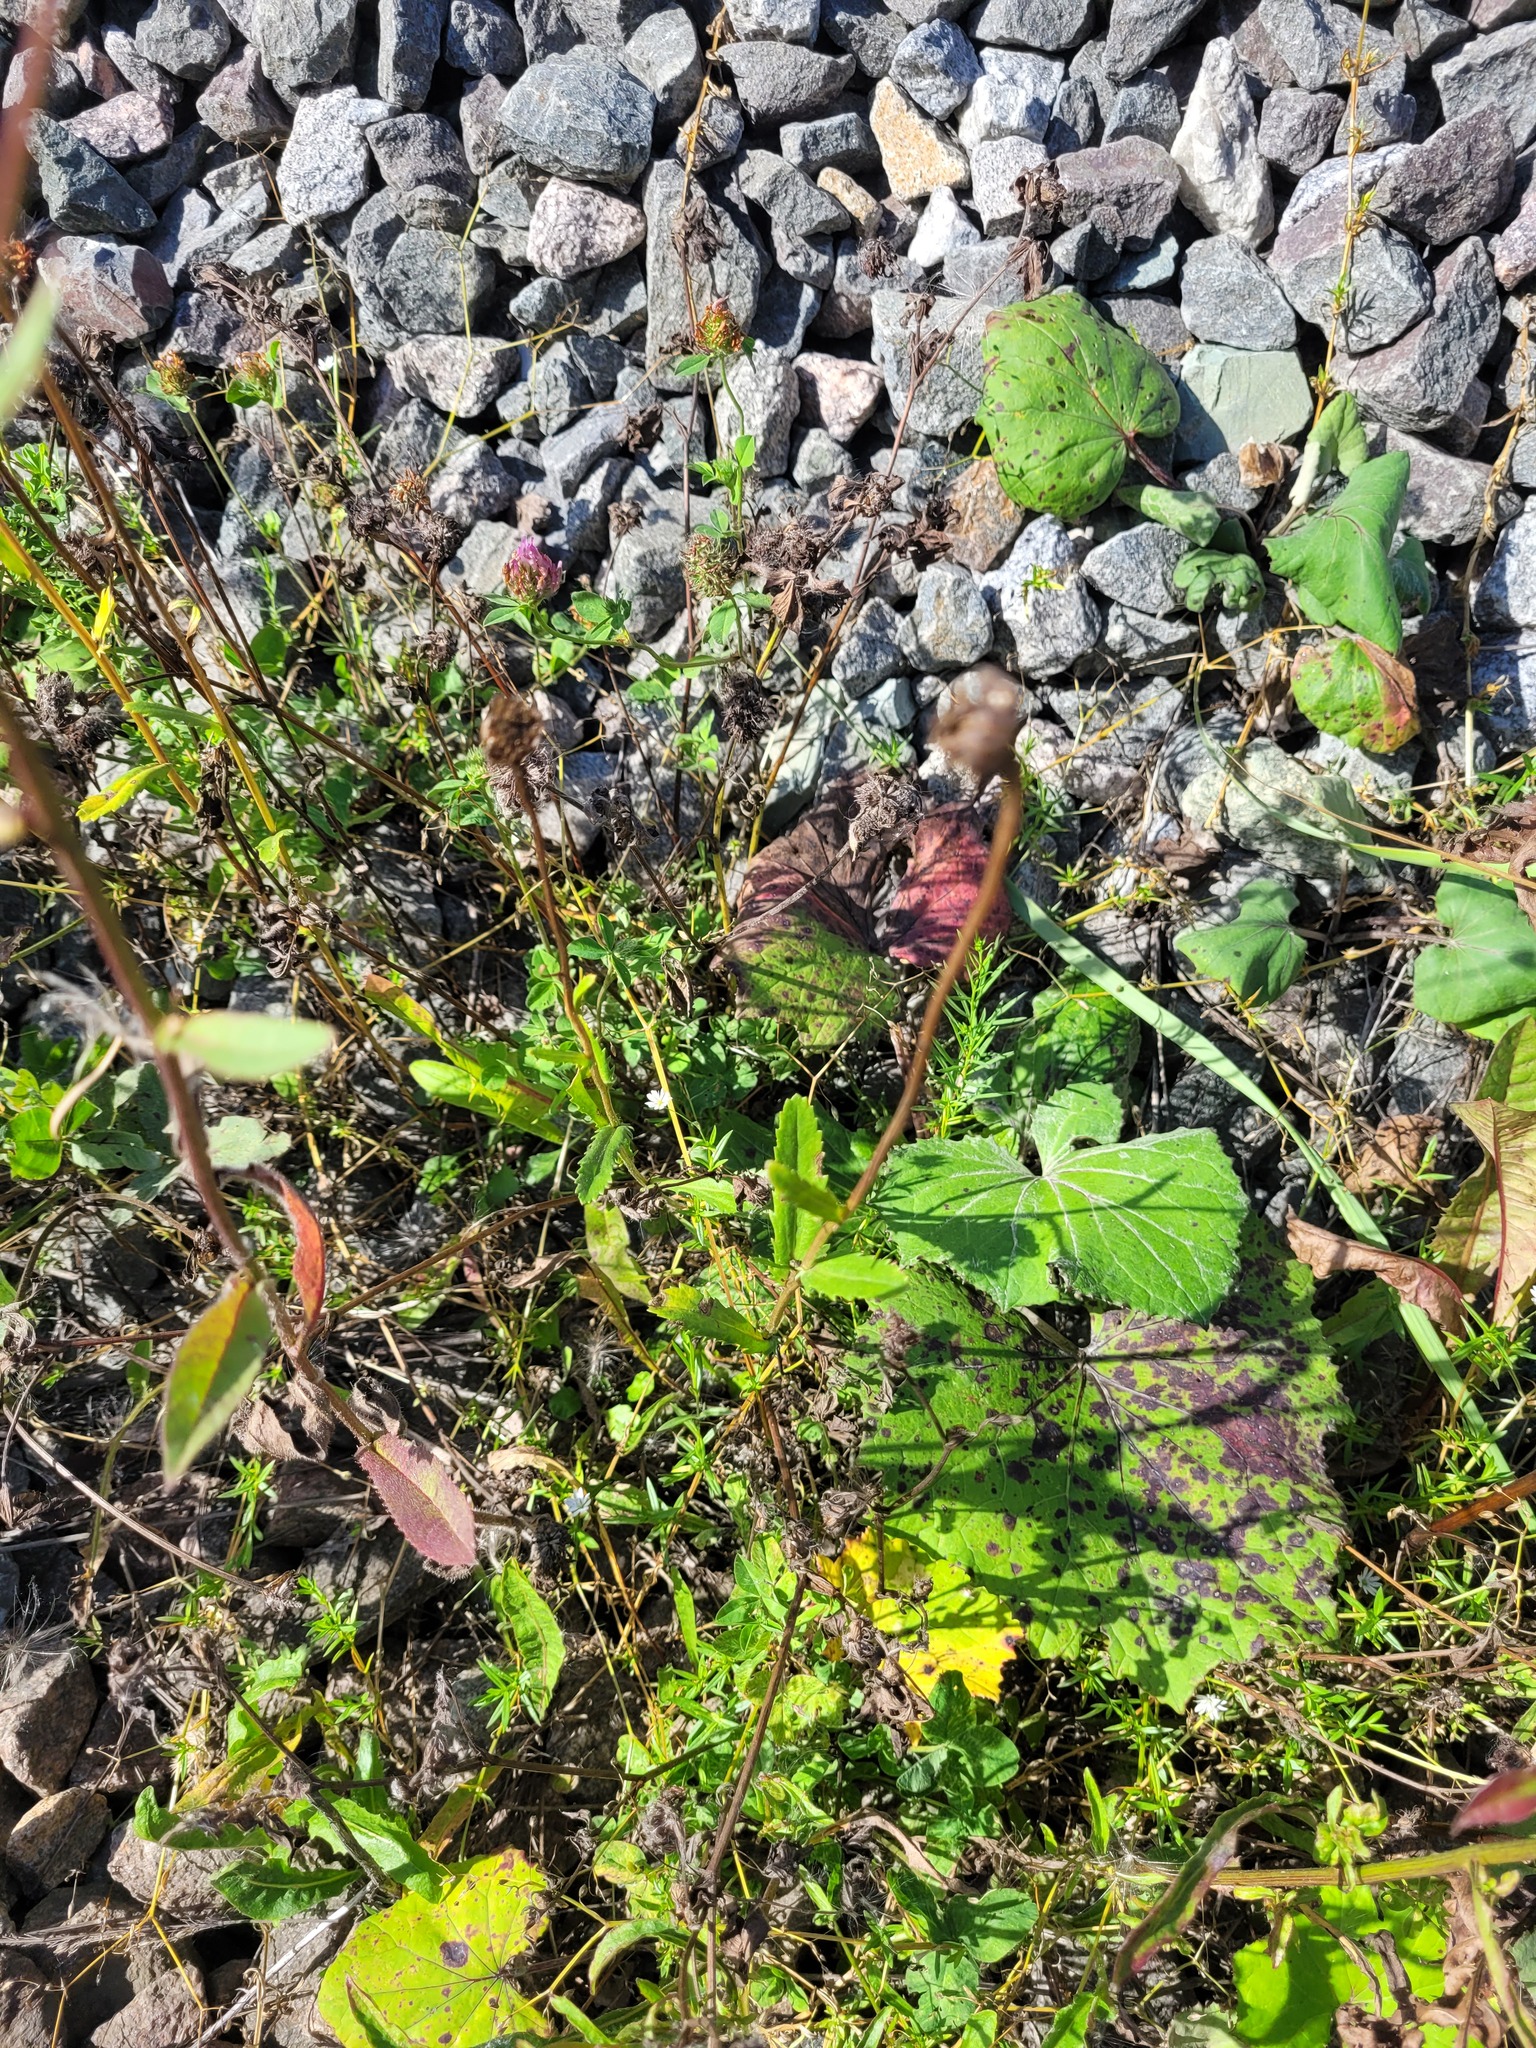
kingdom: Plantae
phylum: Tracheophyta
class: Magnoliopsida
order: Asterales
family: Asteraceae
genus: Leucanthemum
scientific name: Leucanthemum vulgare
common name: Oxeye daisy
